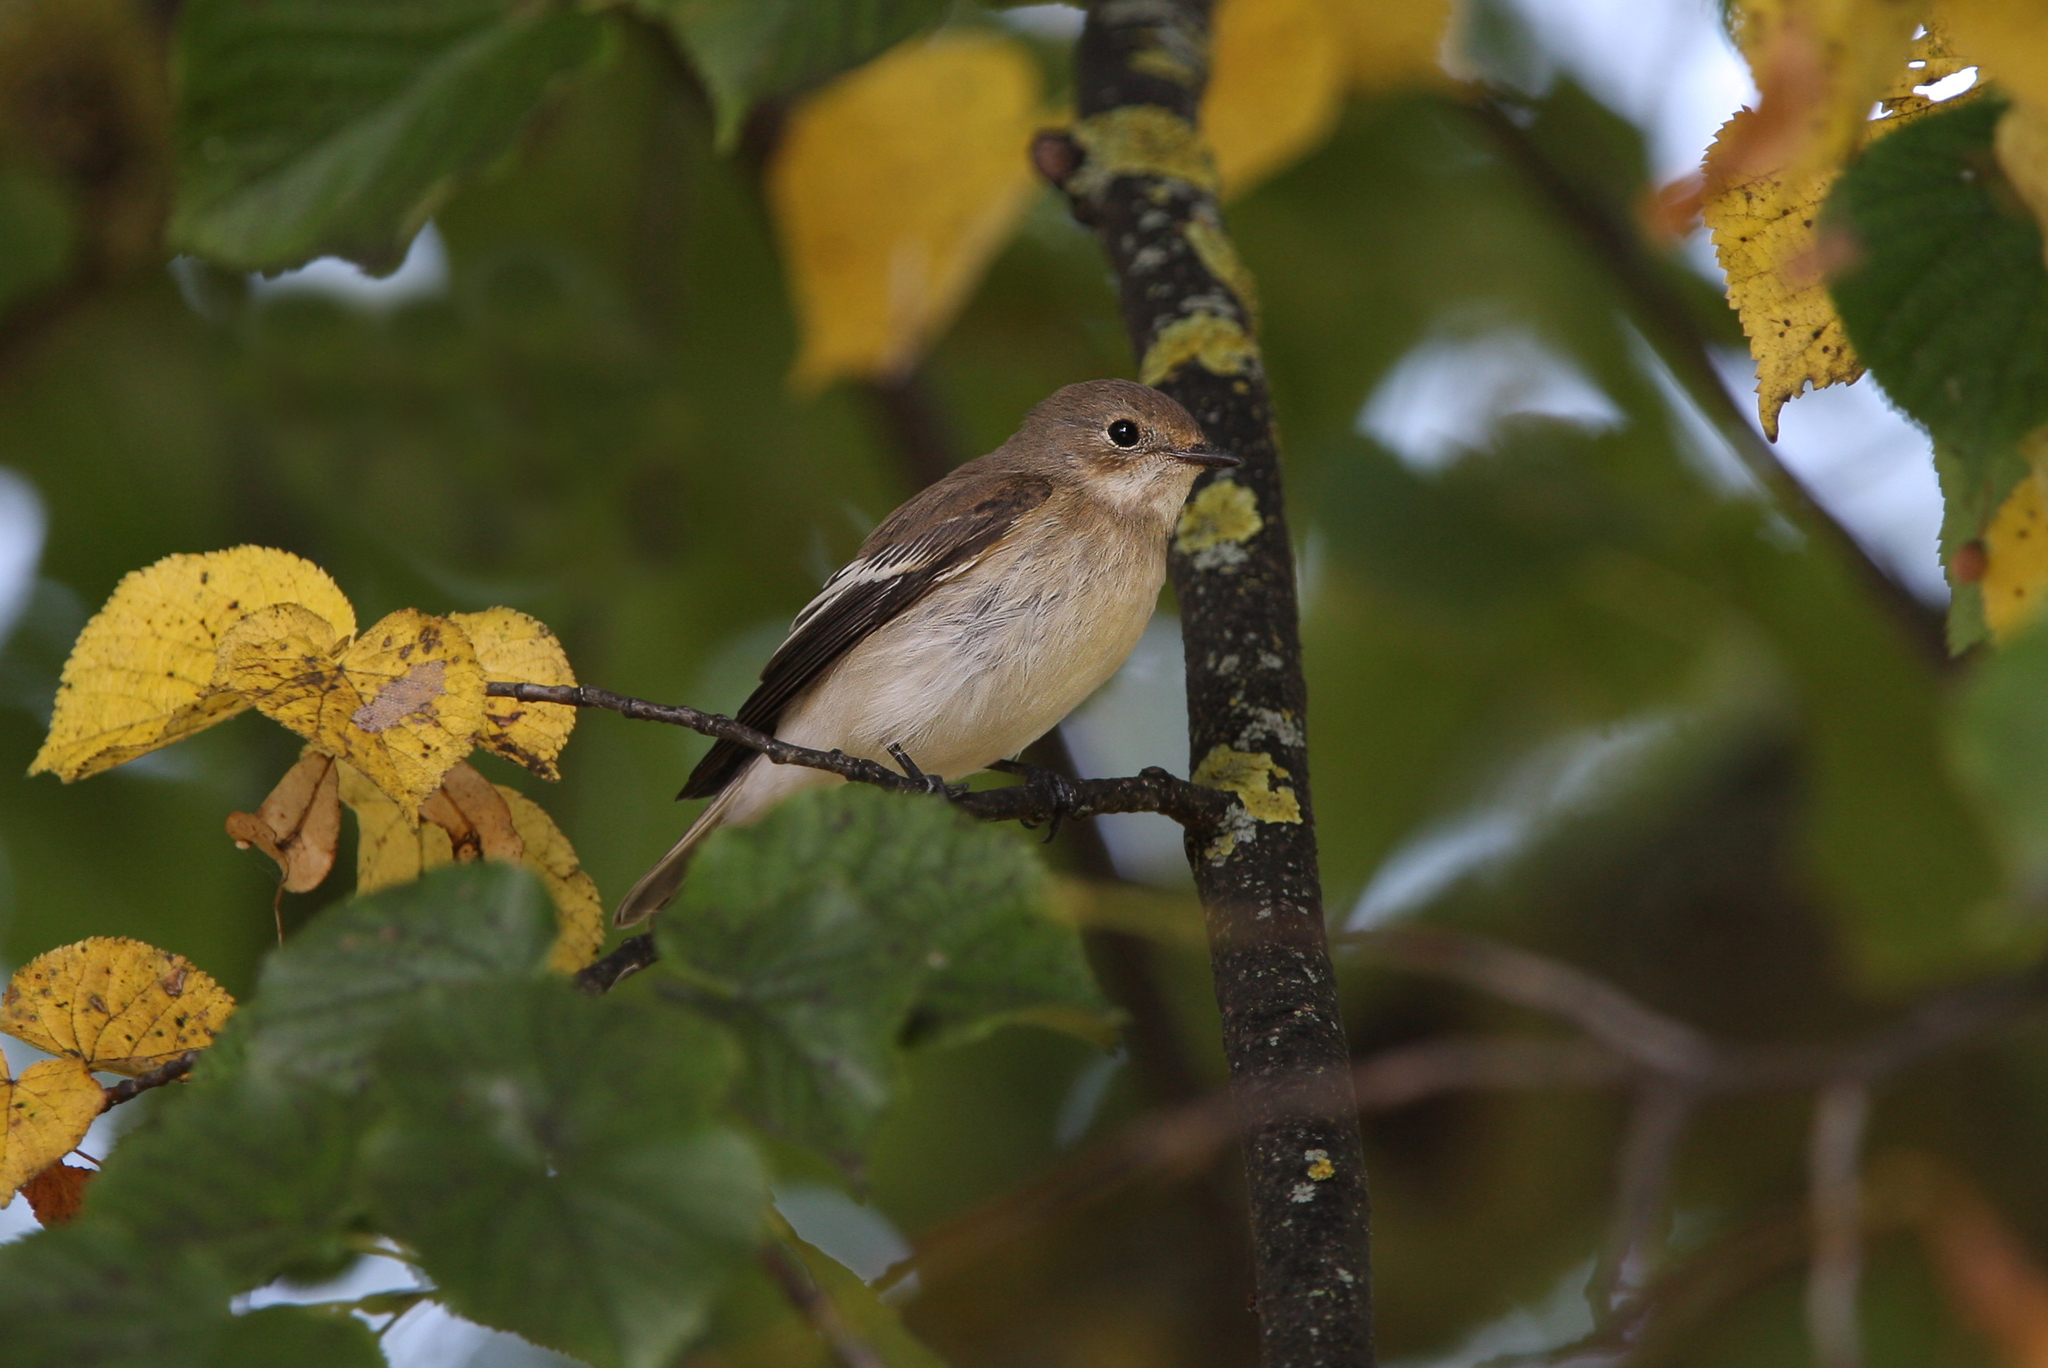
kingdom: Animalia
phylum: Chordata
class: Aves
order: Passeriformes
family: Muscicapidae
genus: Ficedula
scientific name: Ficedula hypoleuca
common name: European pied flycatcher
